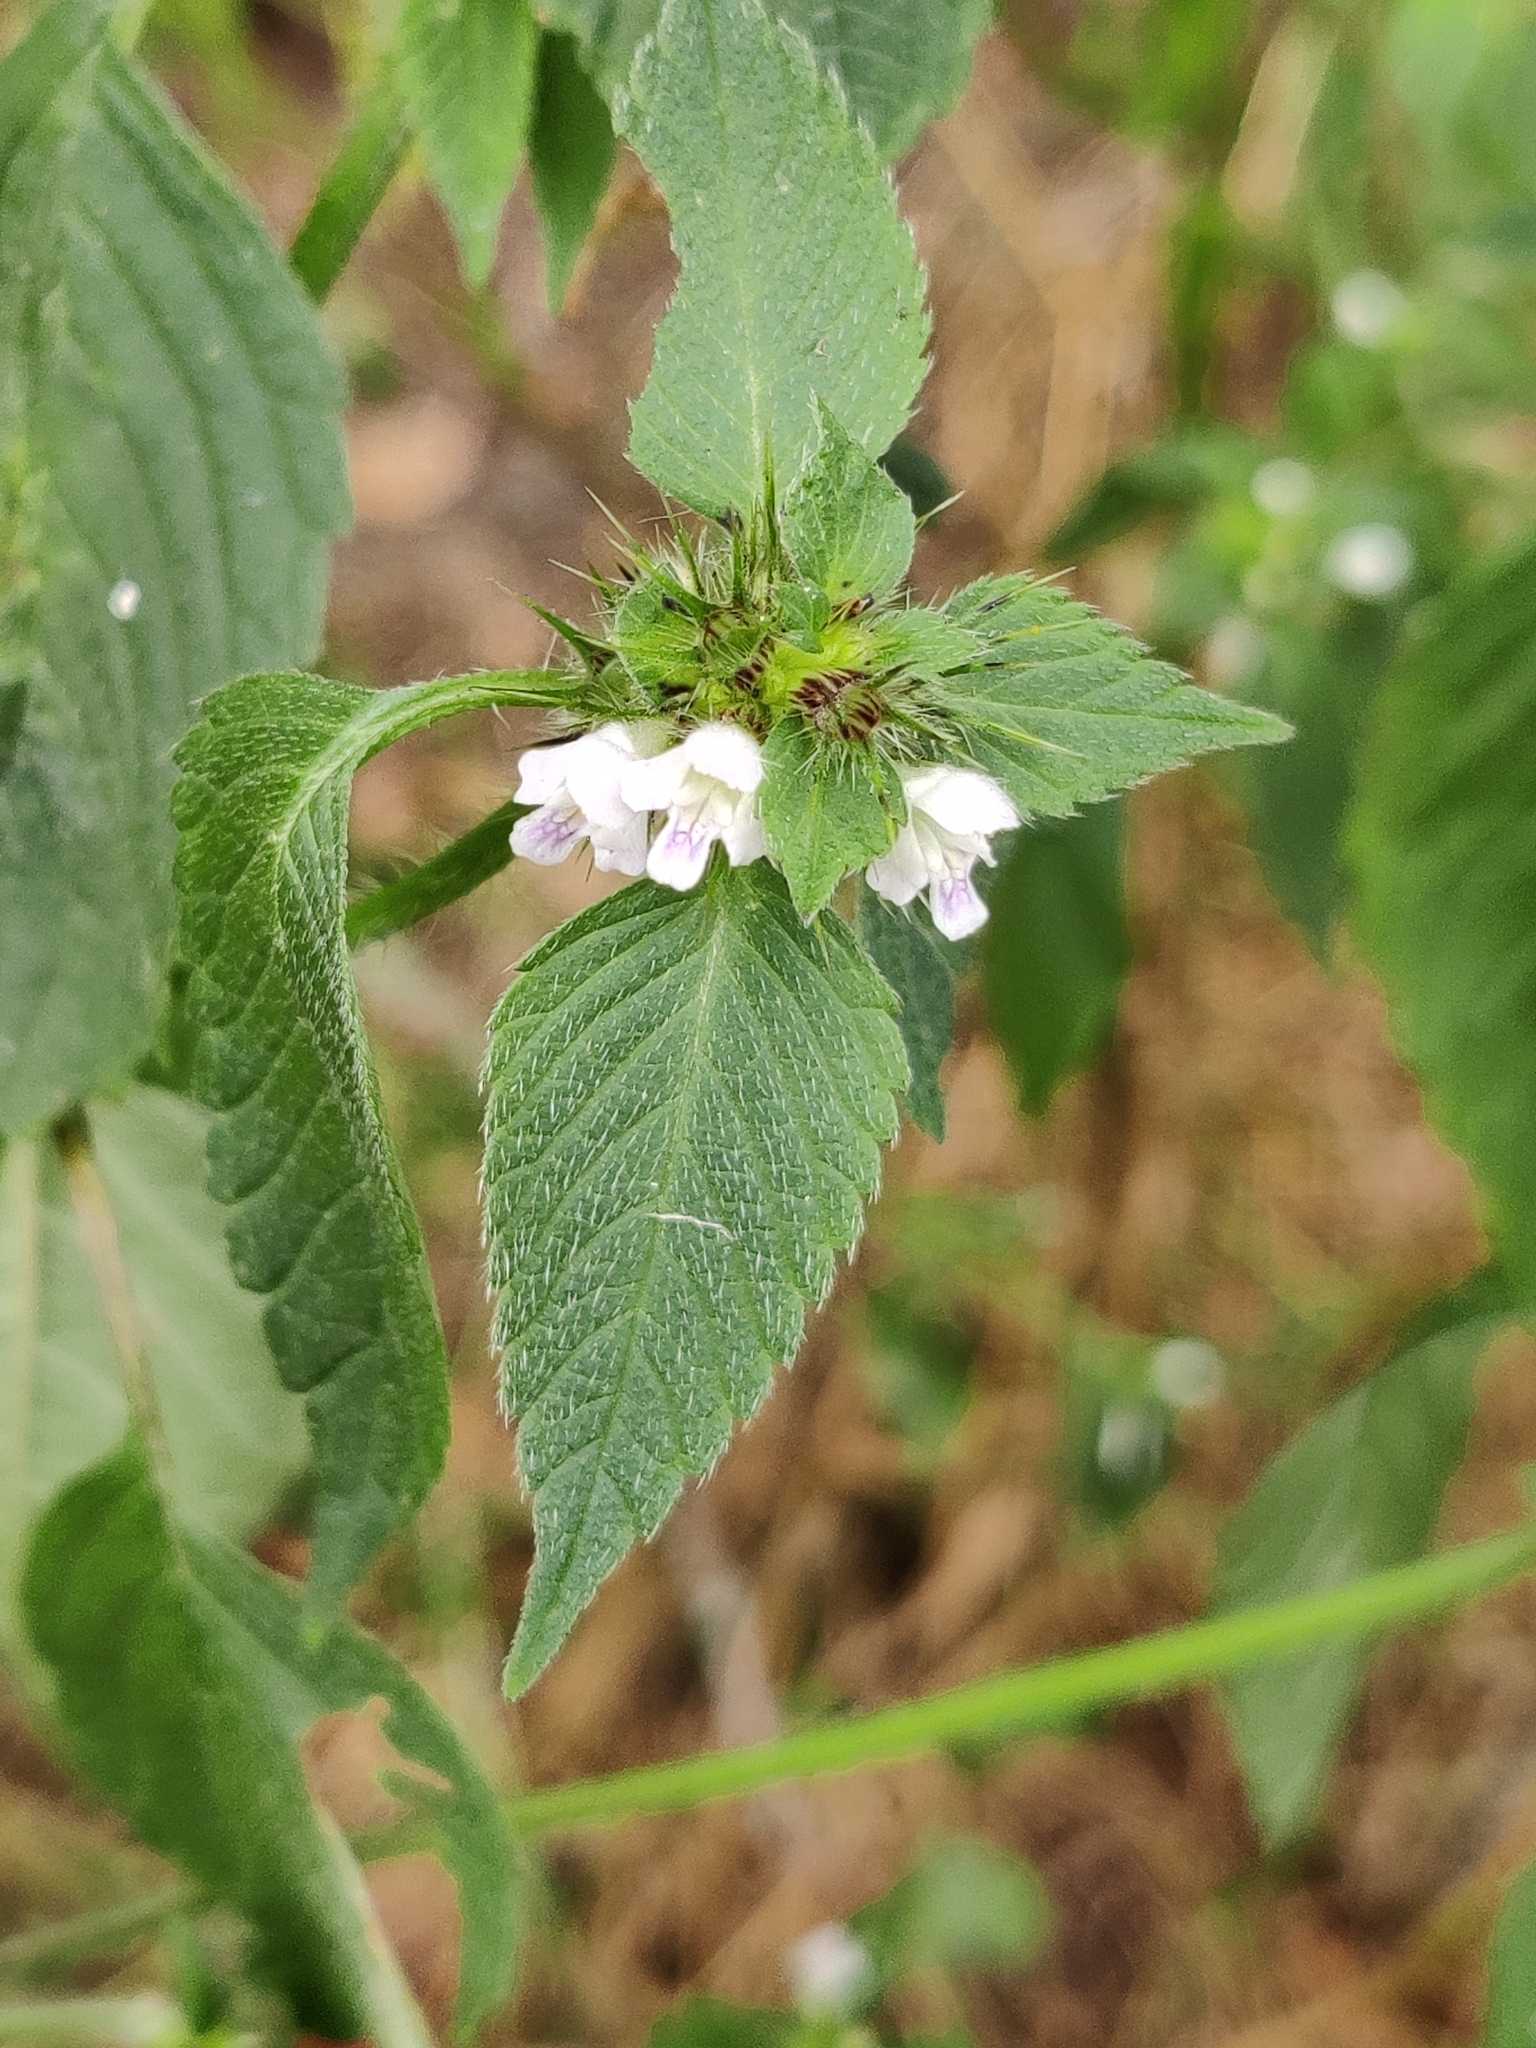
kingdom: Plantae
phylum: Tracheophyta
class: Magnoliopsida
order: Lamiales
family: Lamiaceae
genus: Galeopsis
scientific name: Galeopsis tetrahit
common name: Common hemp-nettle
